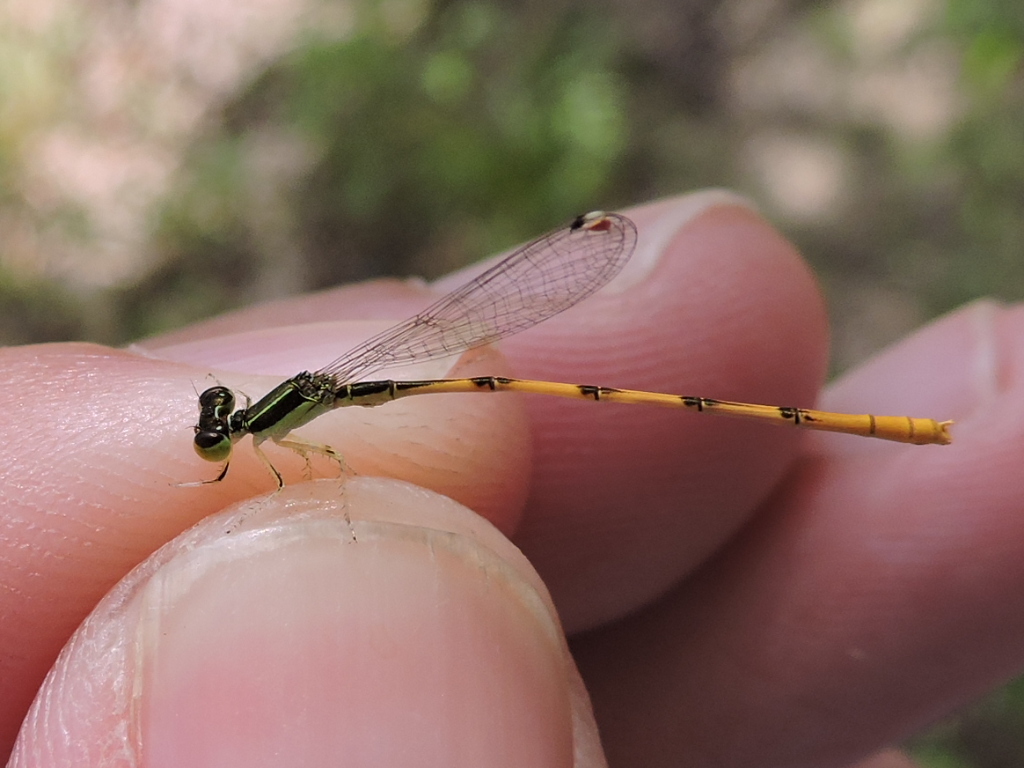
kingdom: Animalia
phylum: Arthropoda
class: Insecta
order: Odonata
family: Coenagrionidae
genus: Ischnura
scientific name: Ischnura hastata
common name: Citrine forktail
